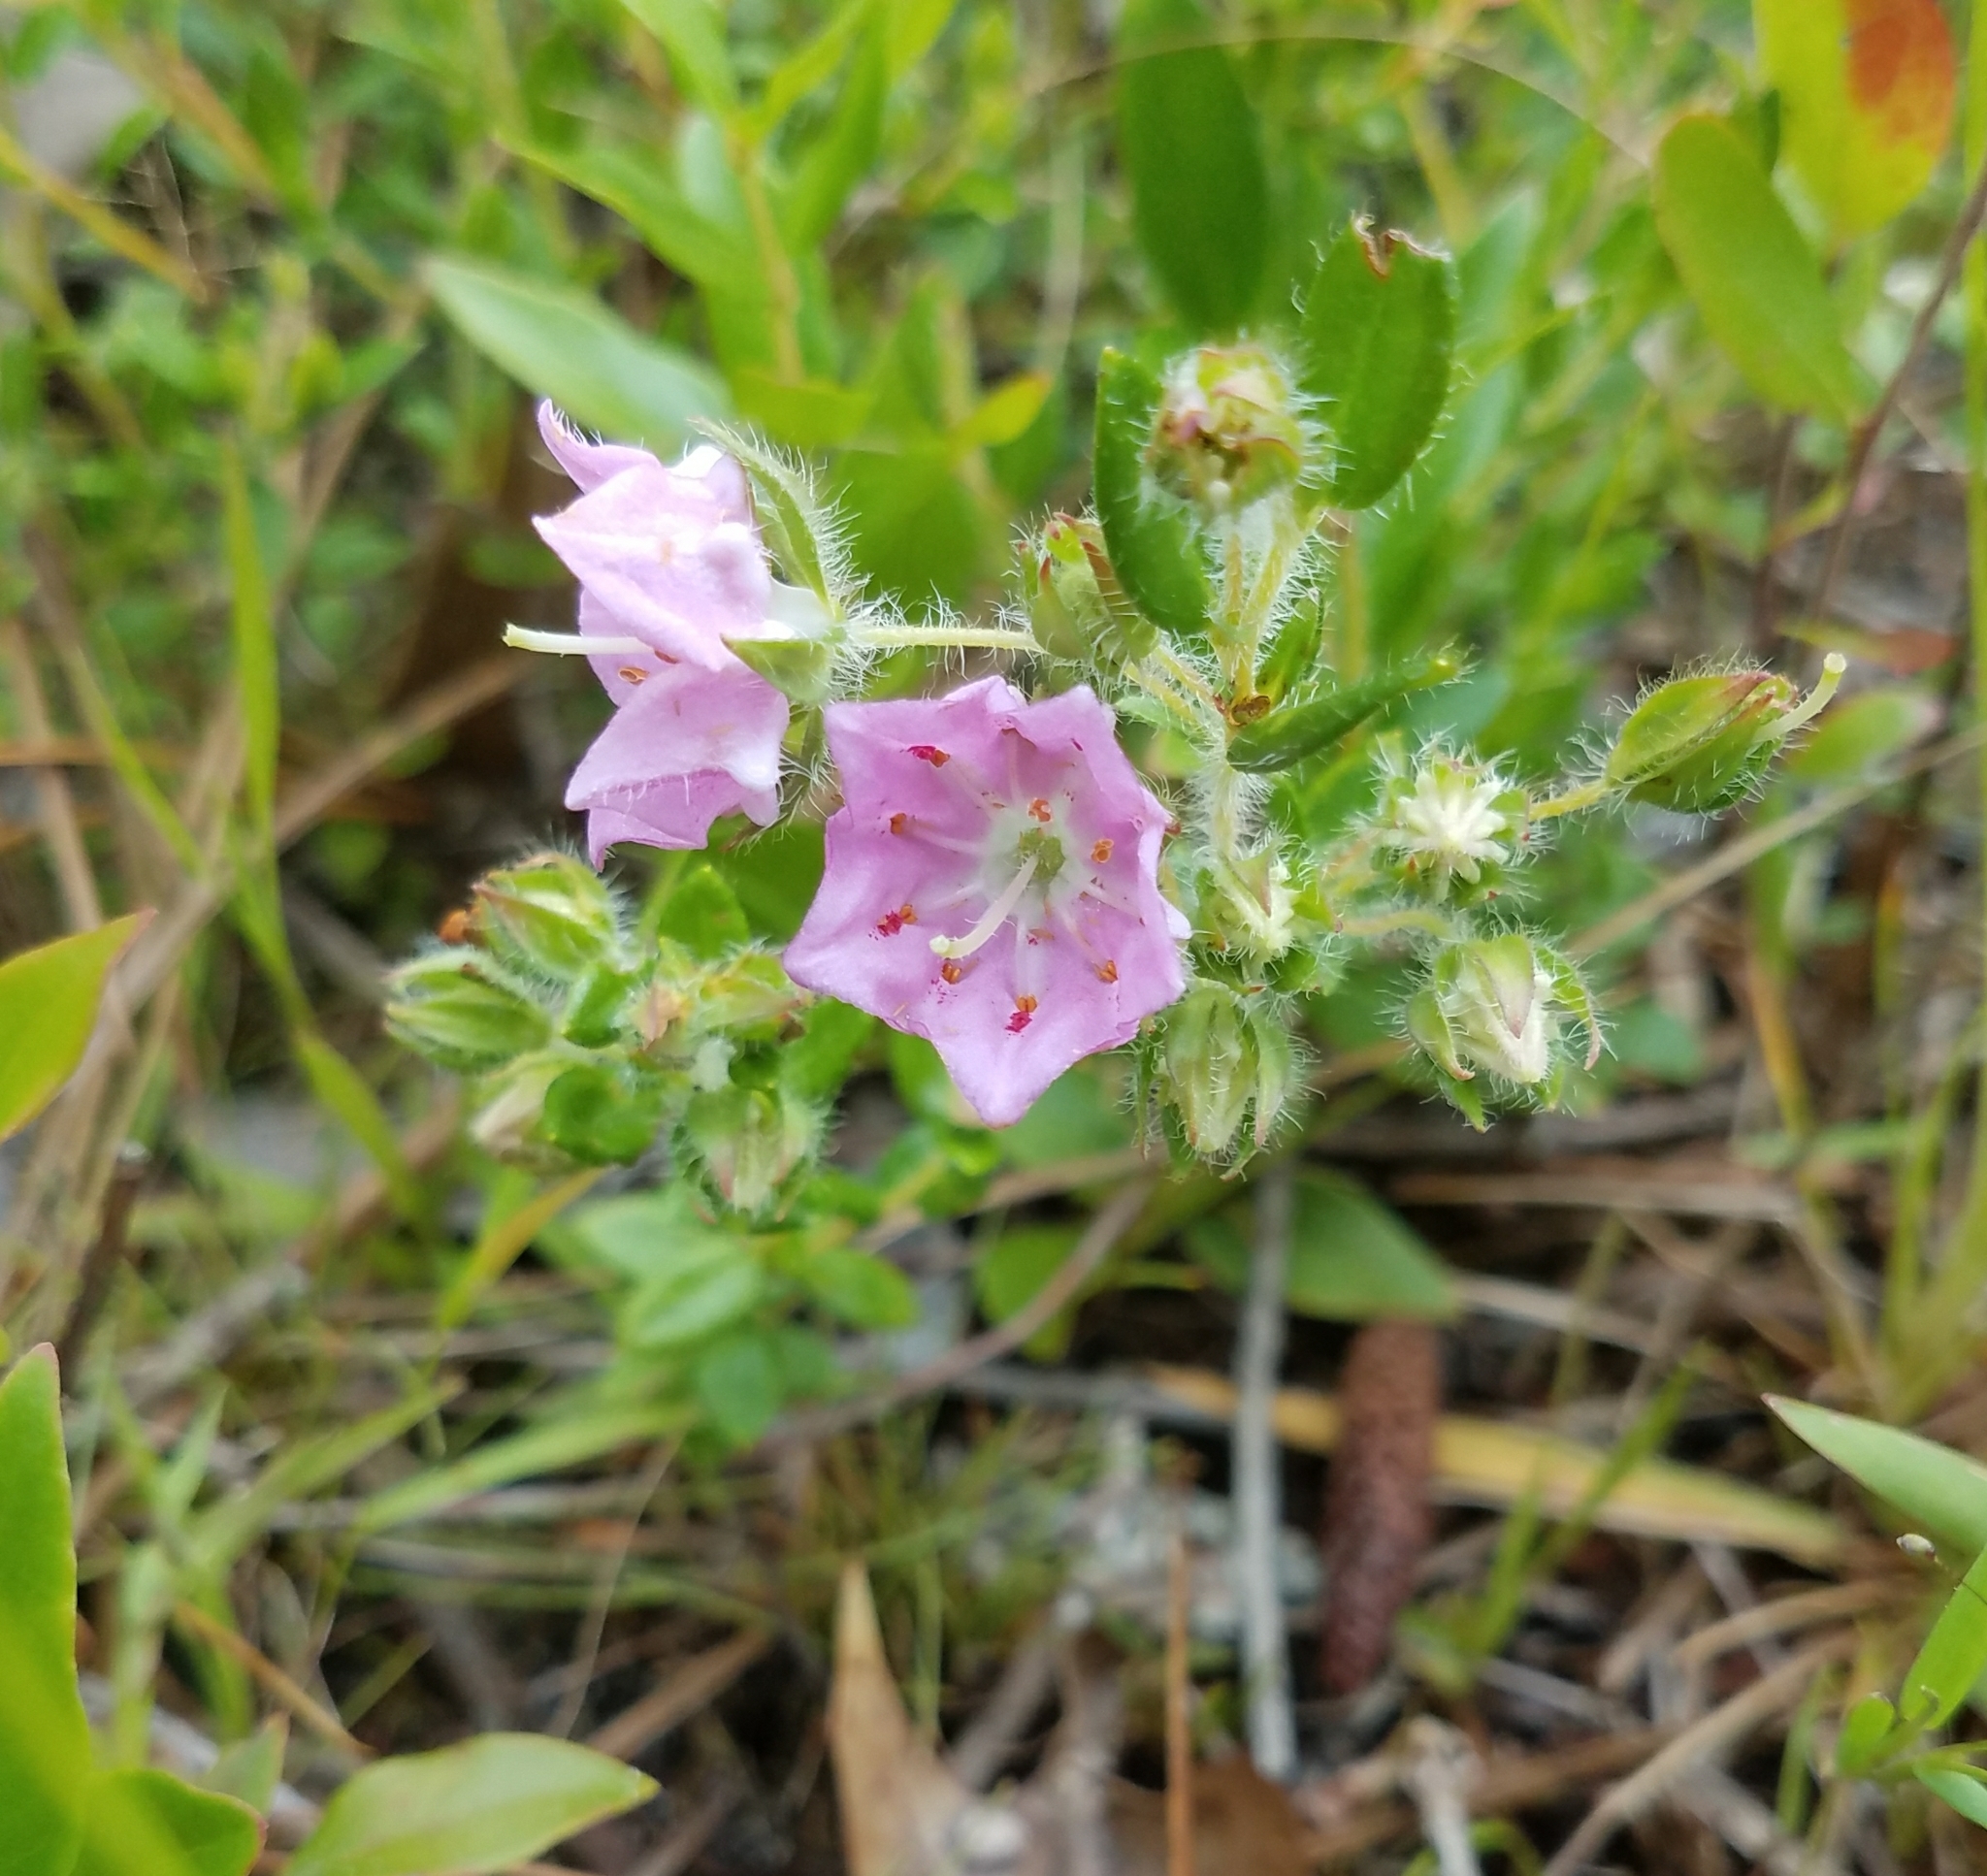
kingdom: Plantae
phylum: Tracheophyta
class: Magnoliopsida
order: Ericales
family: Ericaceae
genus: Kalmia
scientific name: Kalmia hirsuta
